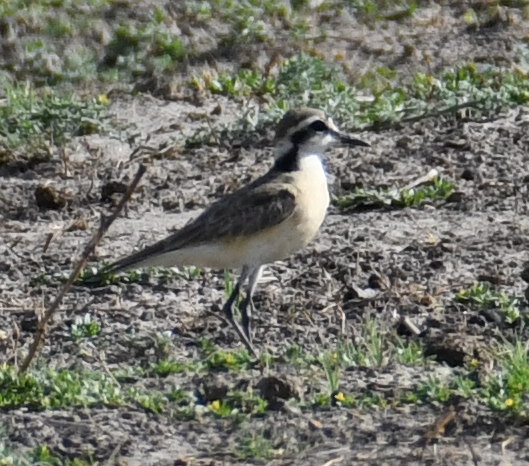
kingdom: Animalia
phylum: Chordata
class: Aves
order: Charadriiformes
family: Charadriidae
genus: Anarhynchus
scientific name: Anarhynchus
